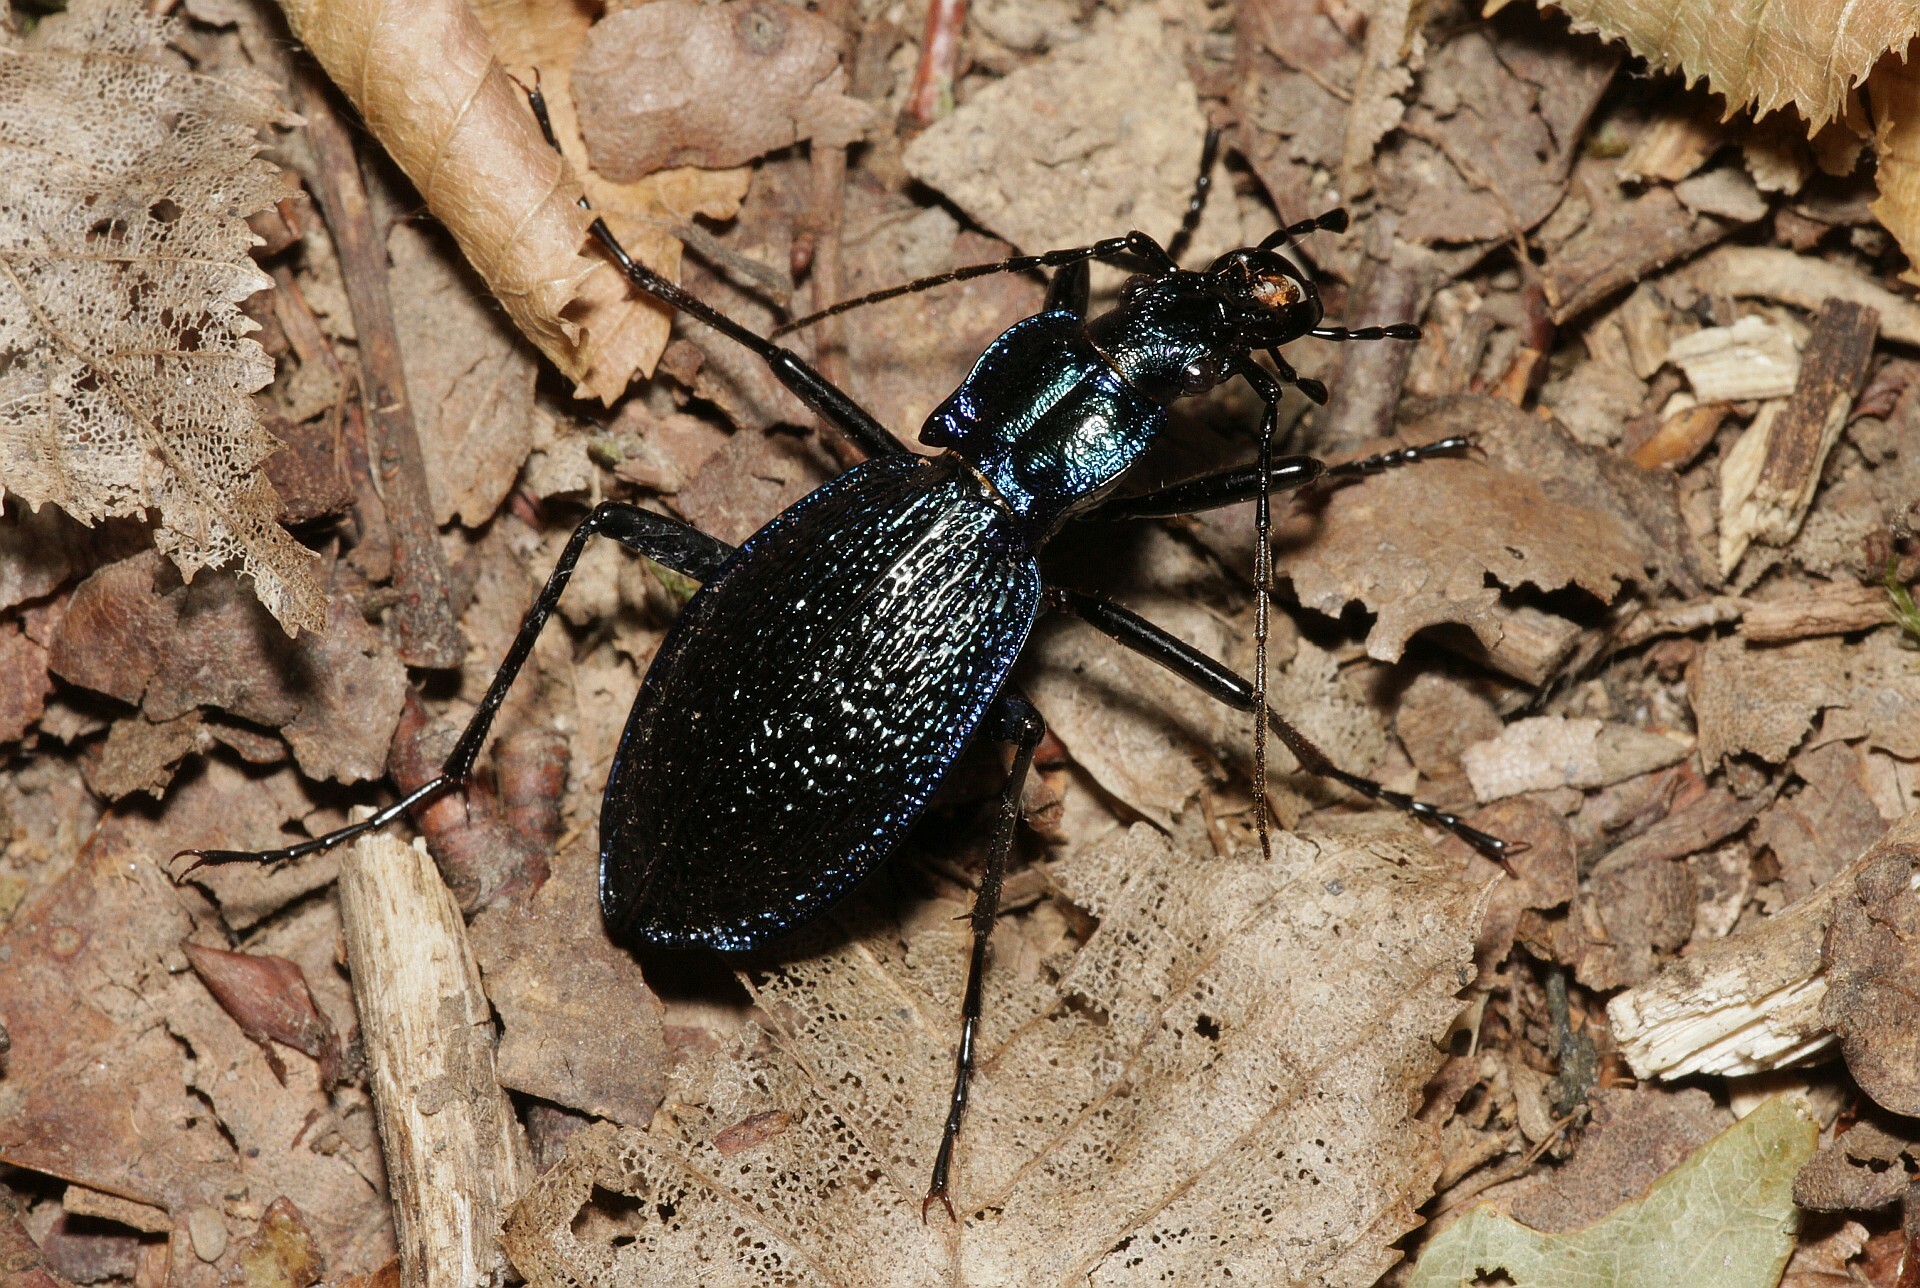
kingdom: Animalia
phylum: Arthropoda
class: Insecta
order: Coleoptera
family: Carabidae
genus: Carabus
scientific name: Carabus intricatus
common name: Blue ground beetle
